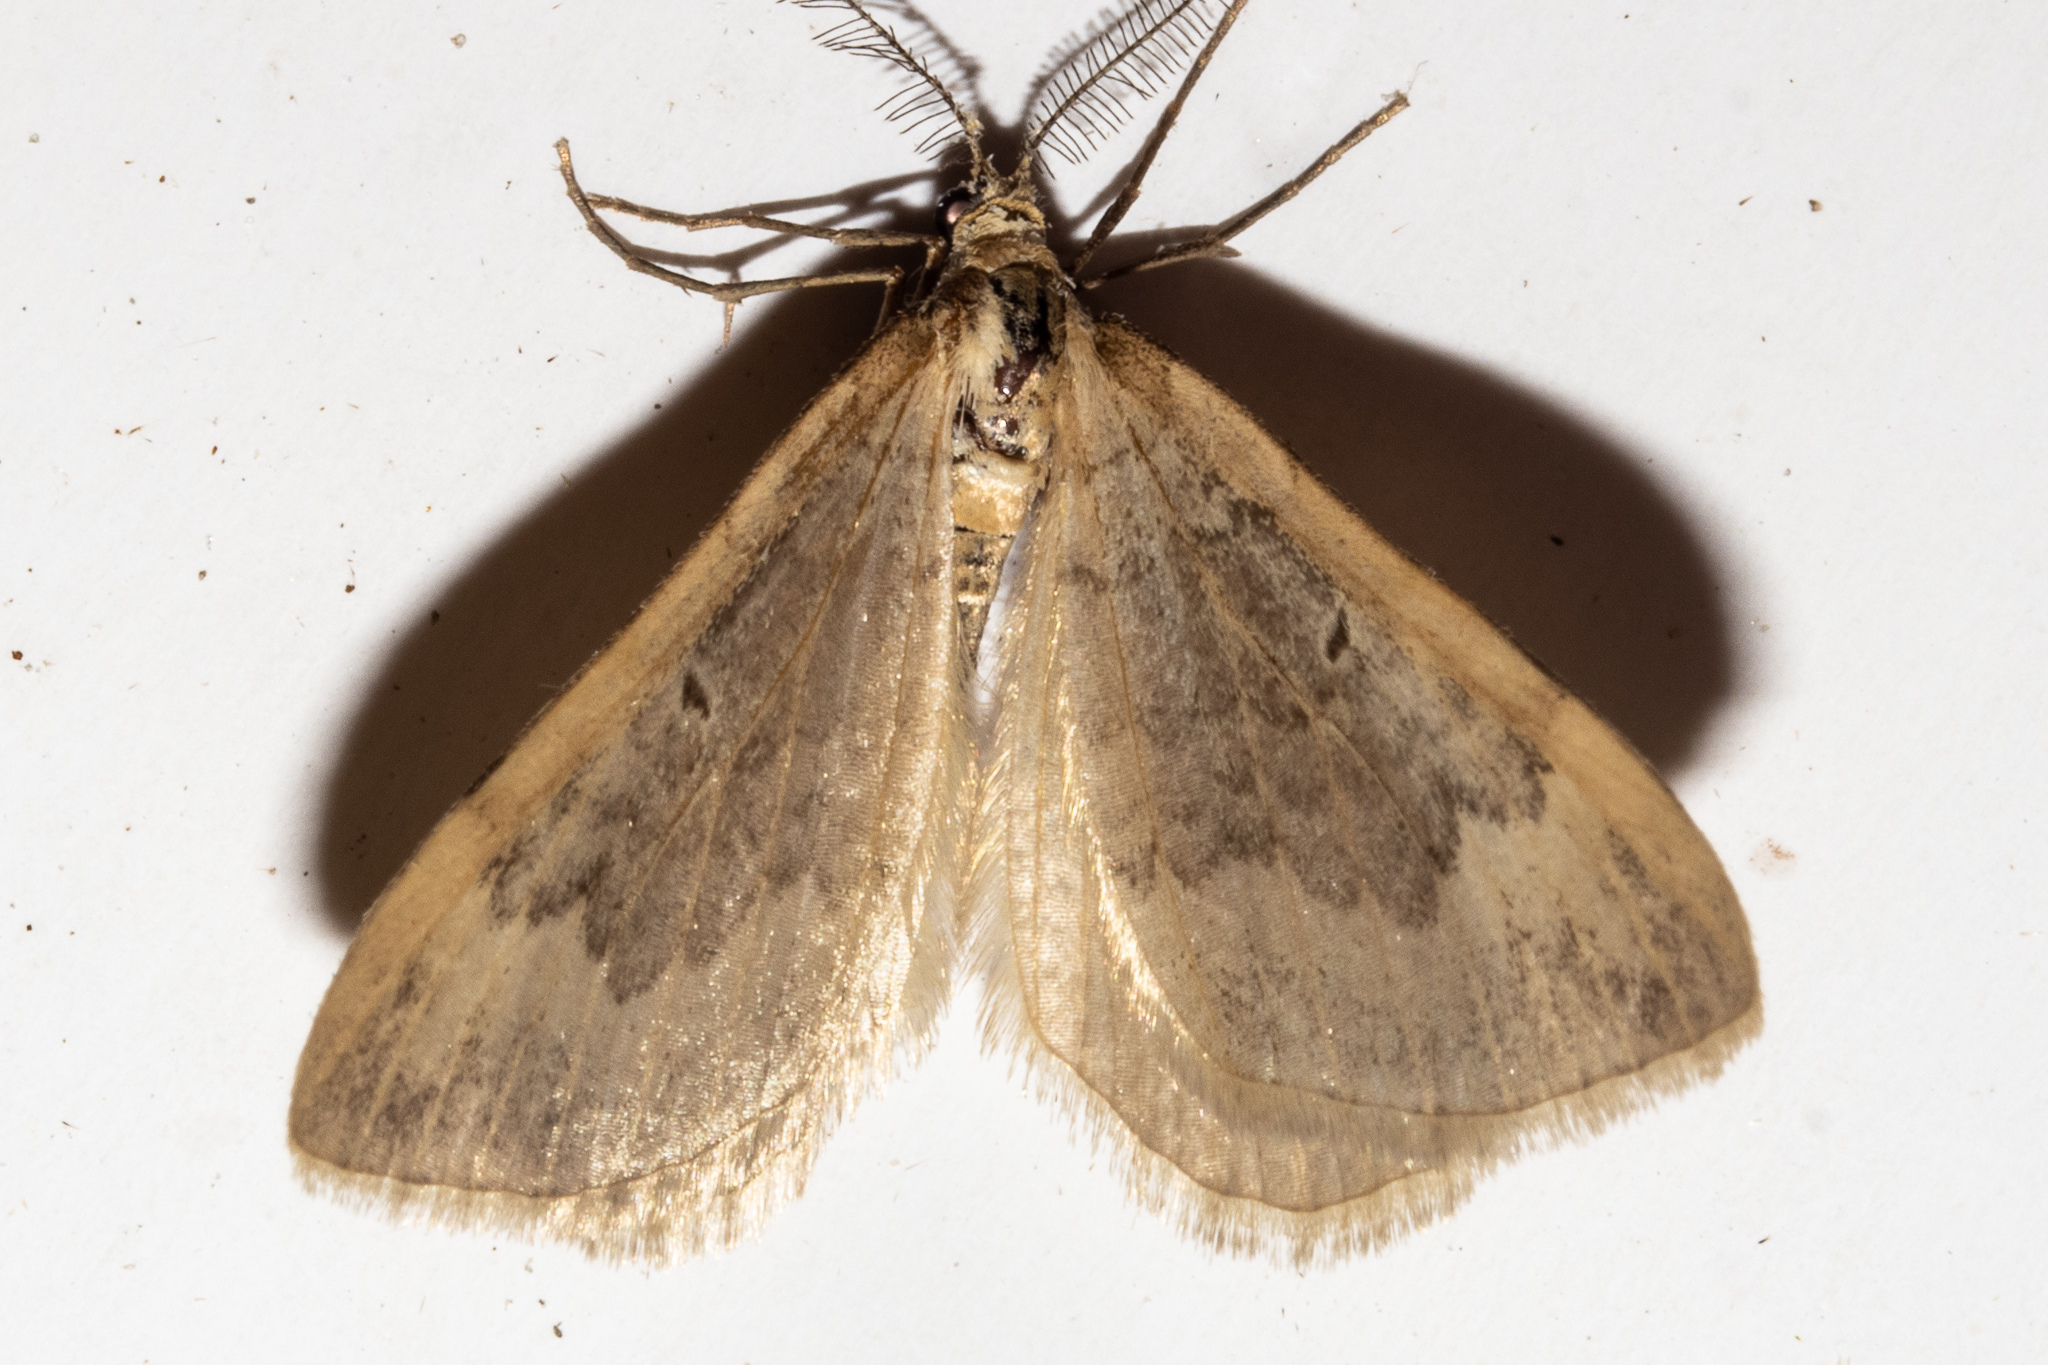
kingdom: Animalia
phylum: Arthropoda
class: Insecta
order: Lepidoptera
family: Geometridae
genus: Asaphodes
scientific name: Asaphodes helias
